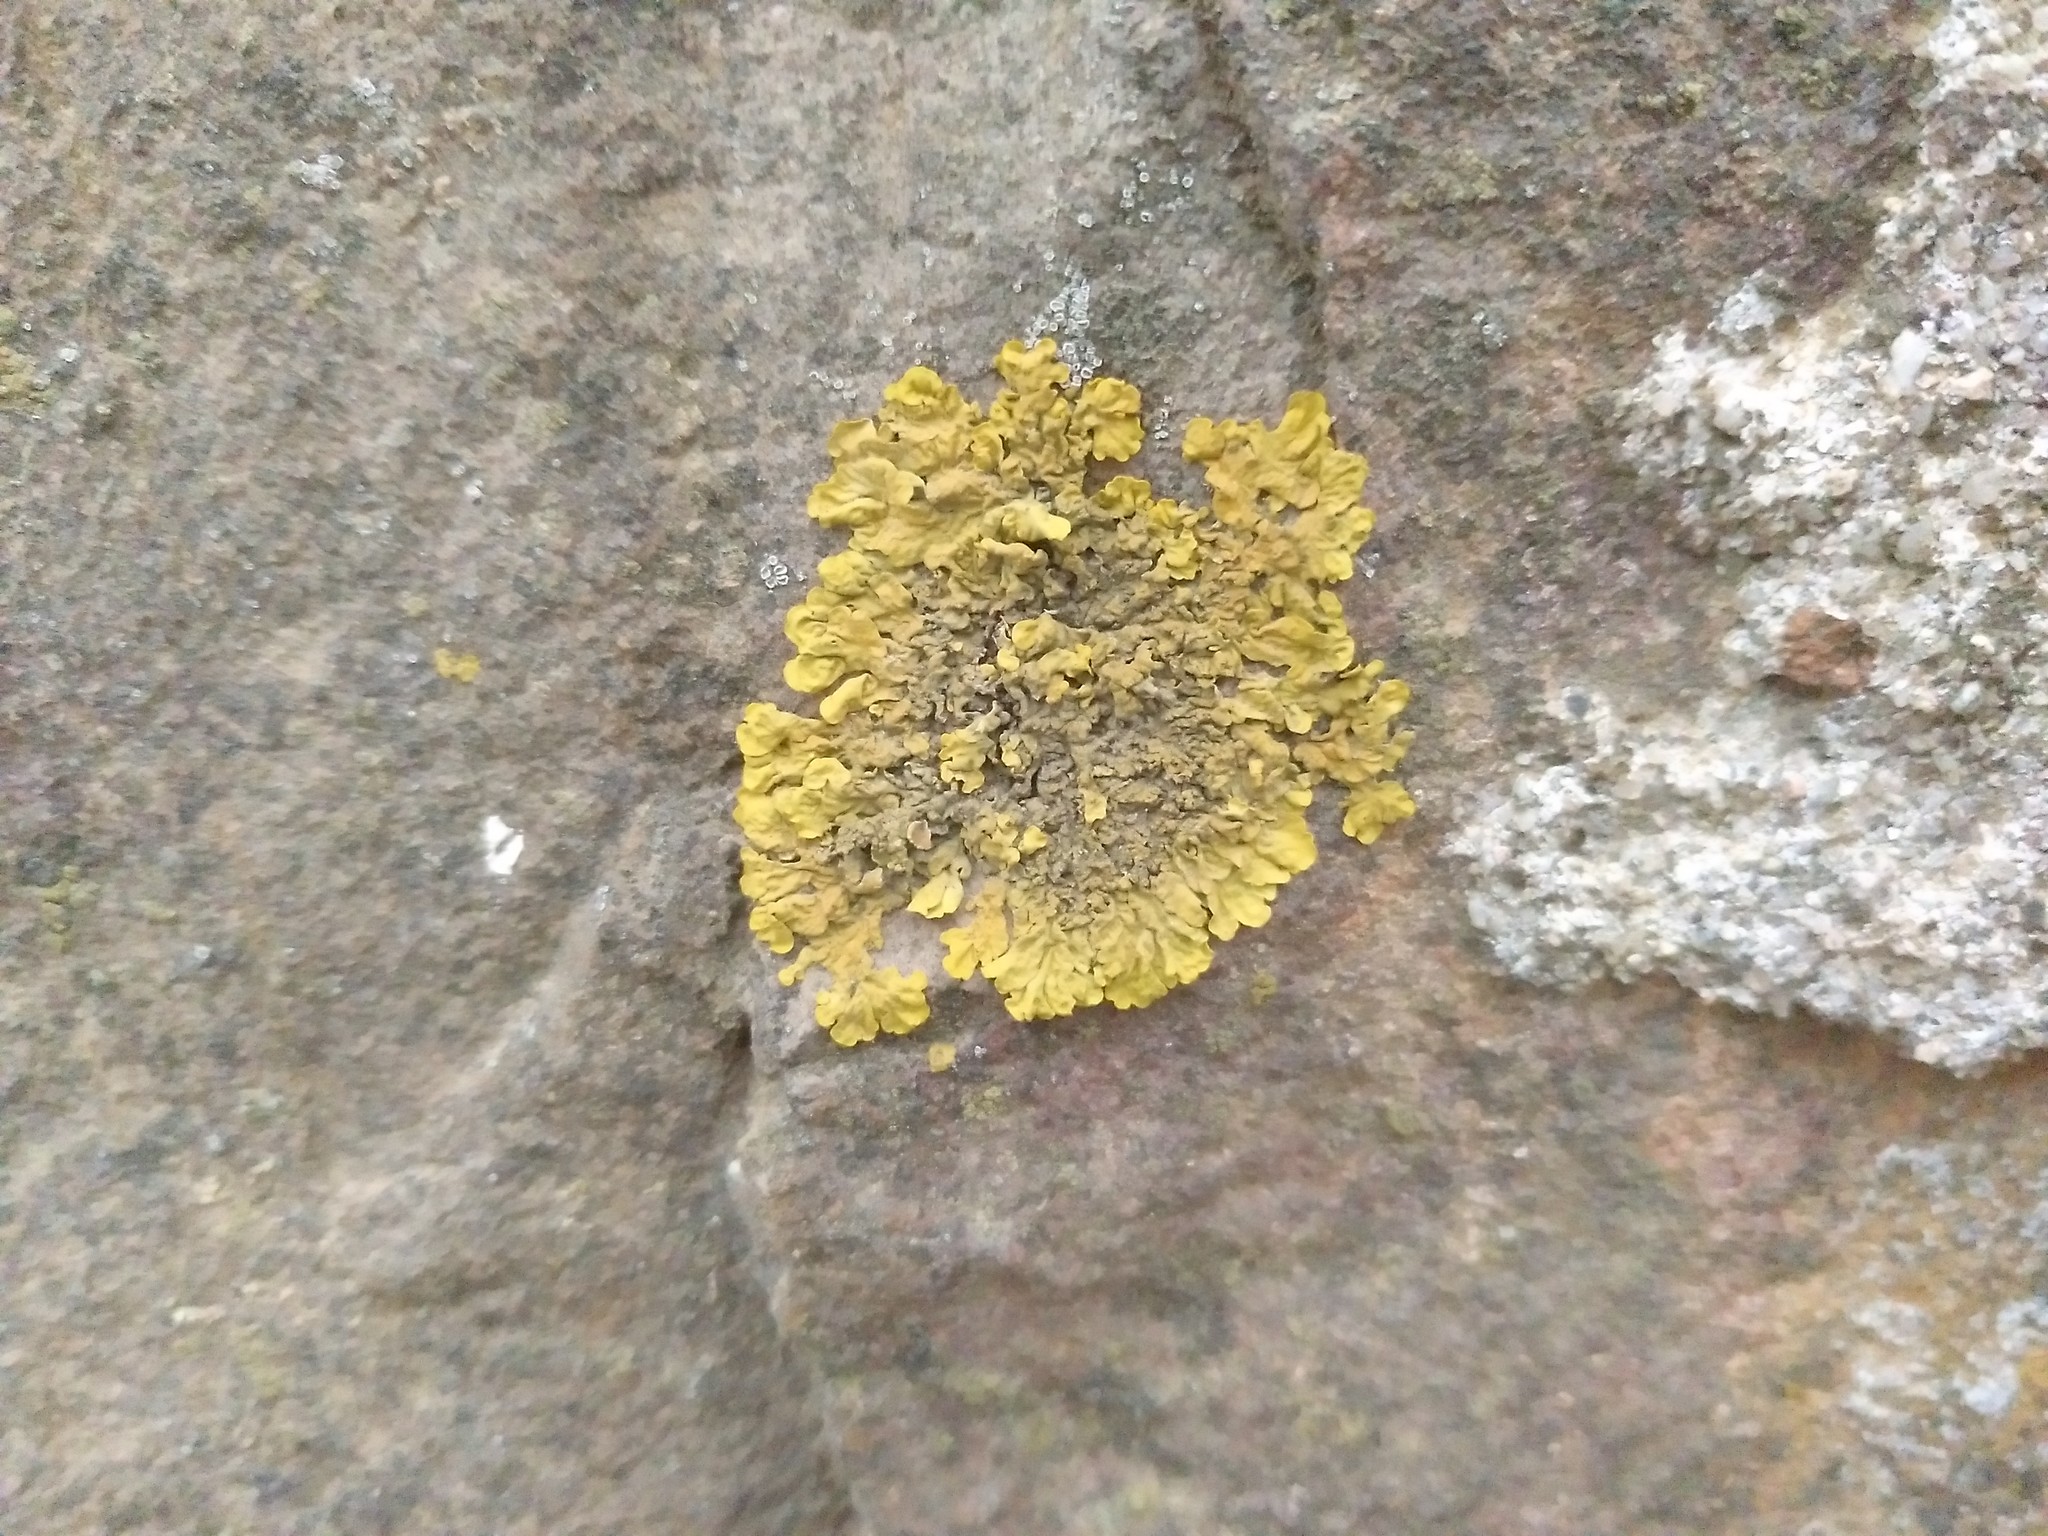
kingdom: Fungi
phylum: Ascomycota
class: Lecanoromycetes
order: Teloschistales
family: Teloschistaceae
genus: Xanthoria
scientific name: Xanthoria parietina
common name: Common orange lichen
